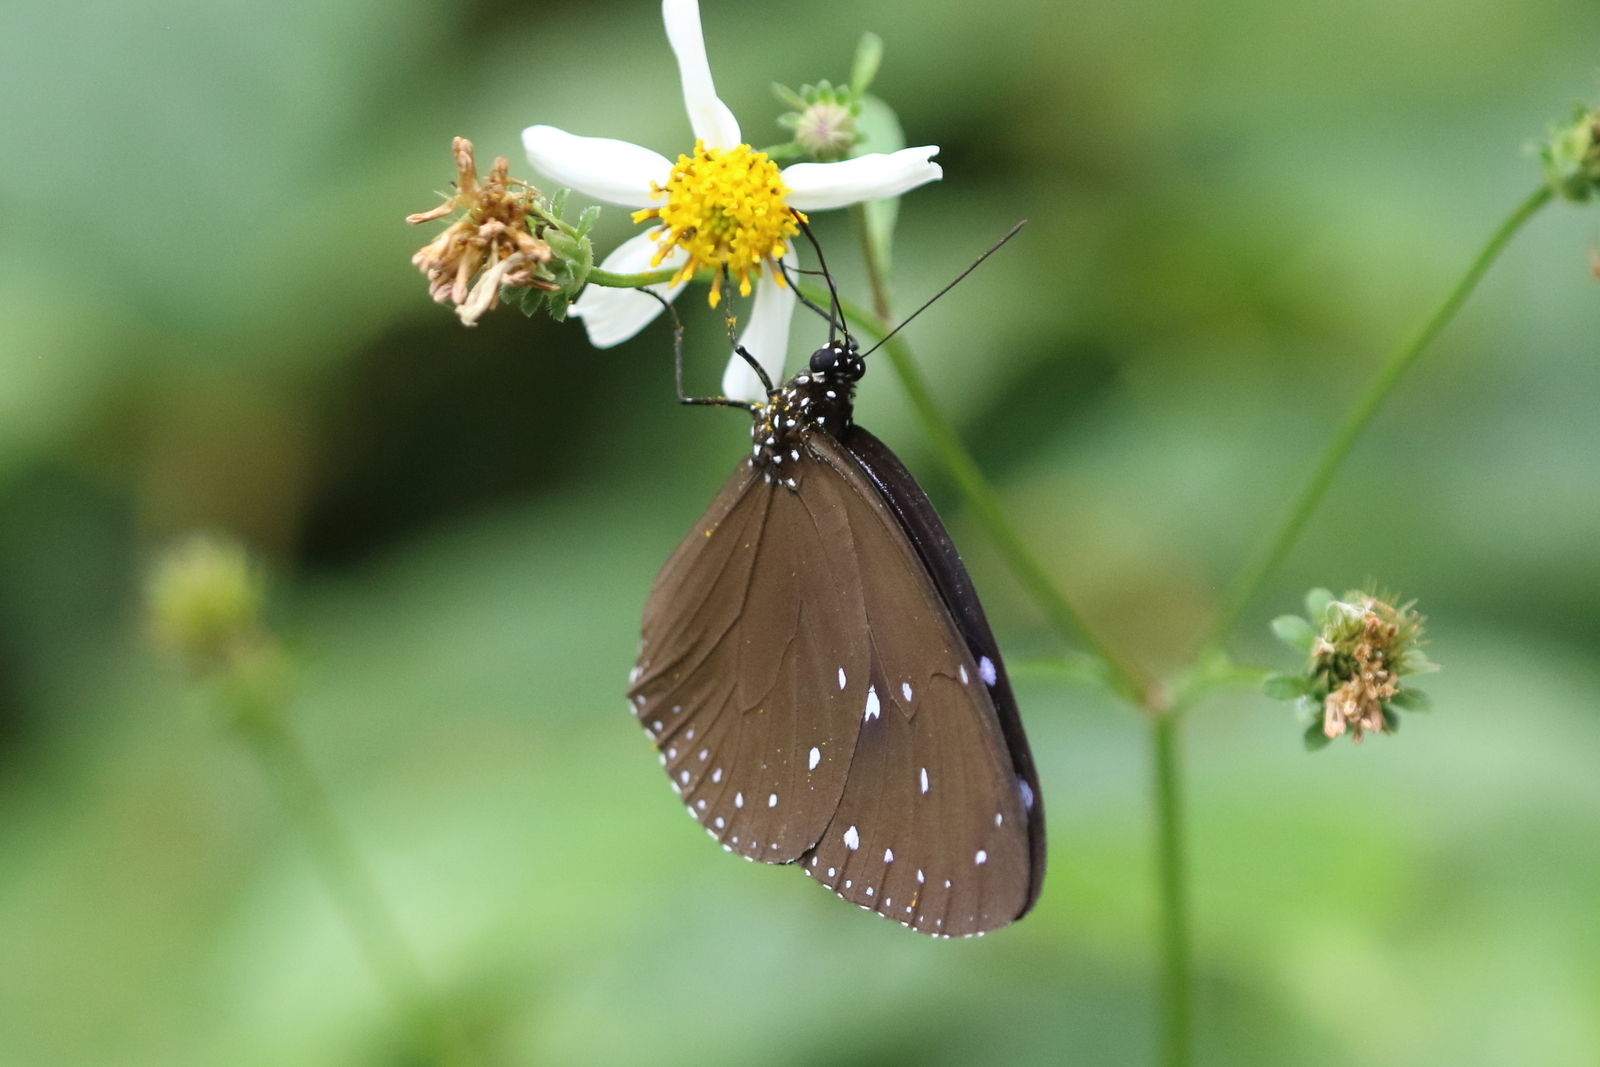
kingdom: Animalia
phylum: Arthropoda
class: Insecta
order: Lepidoptera
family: Nymphalidae
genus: Euploea
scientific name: Euploea tulliolus
